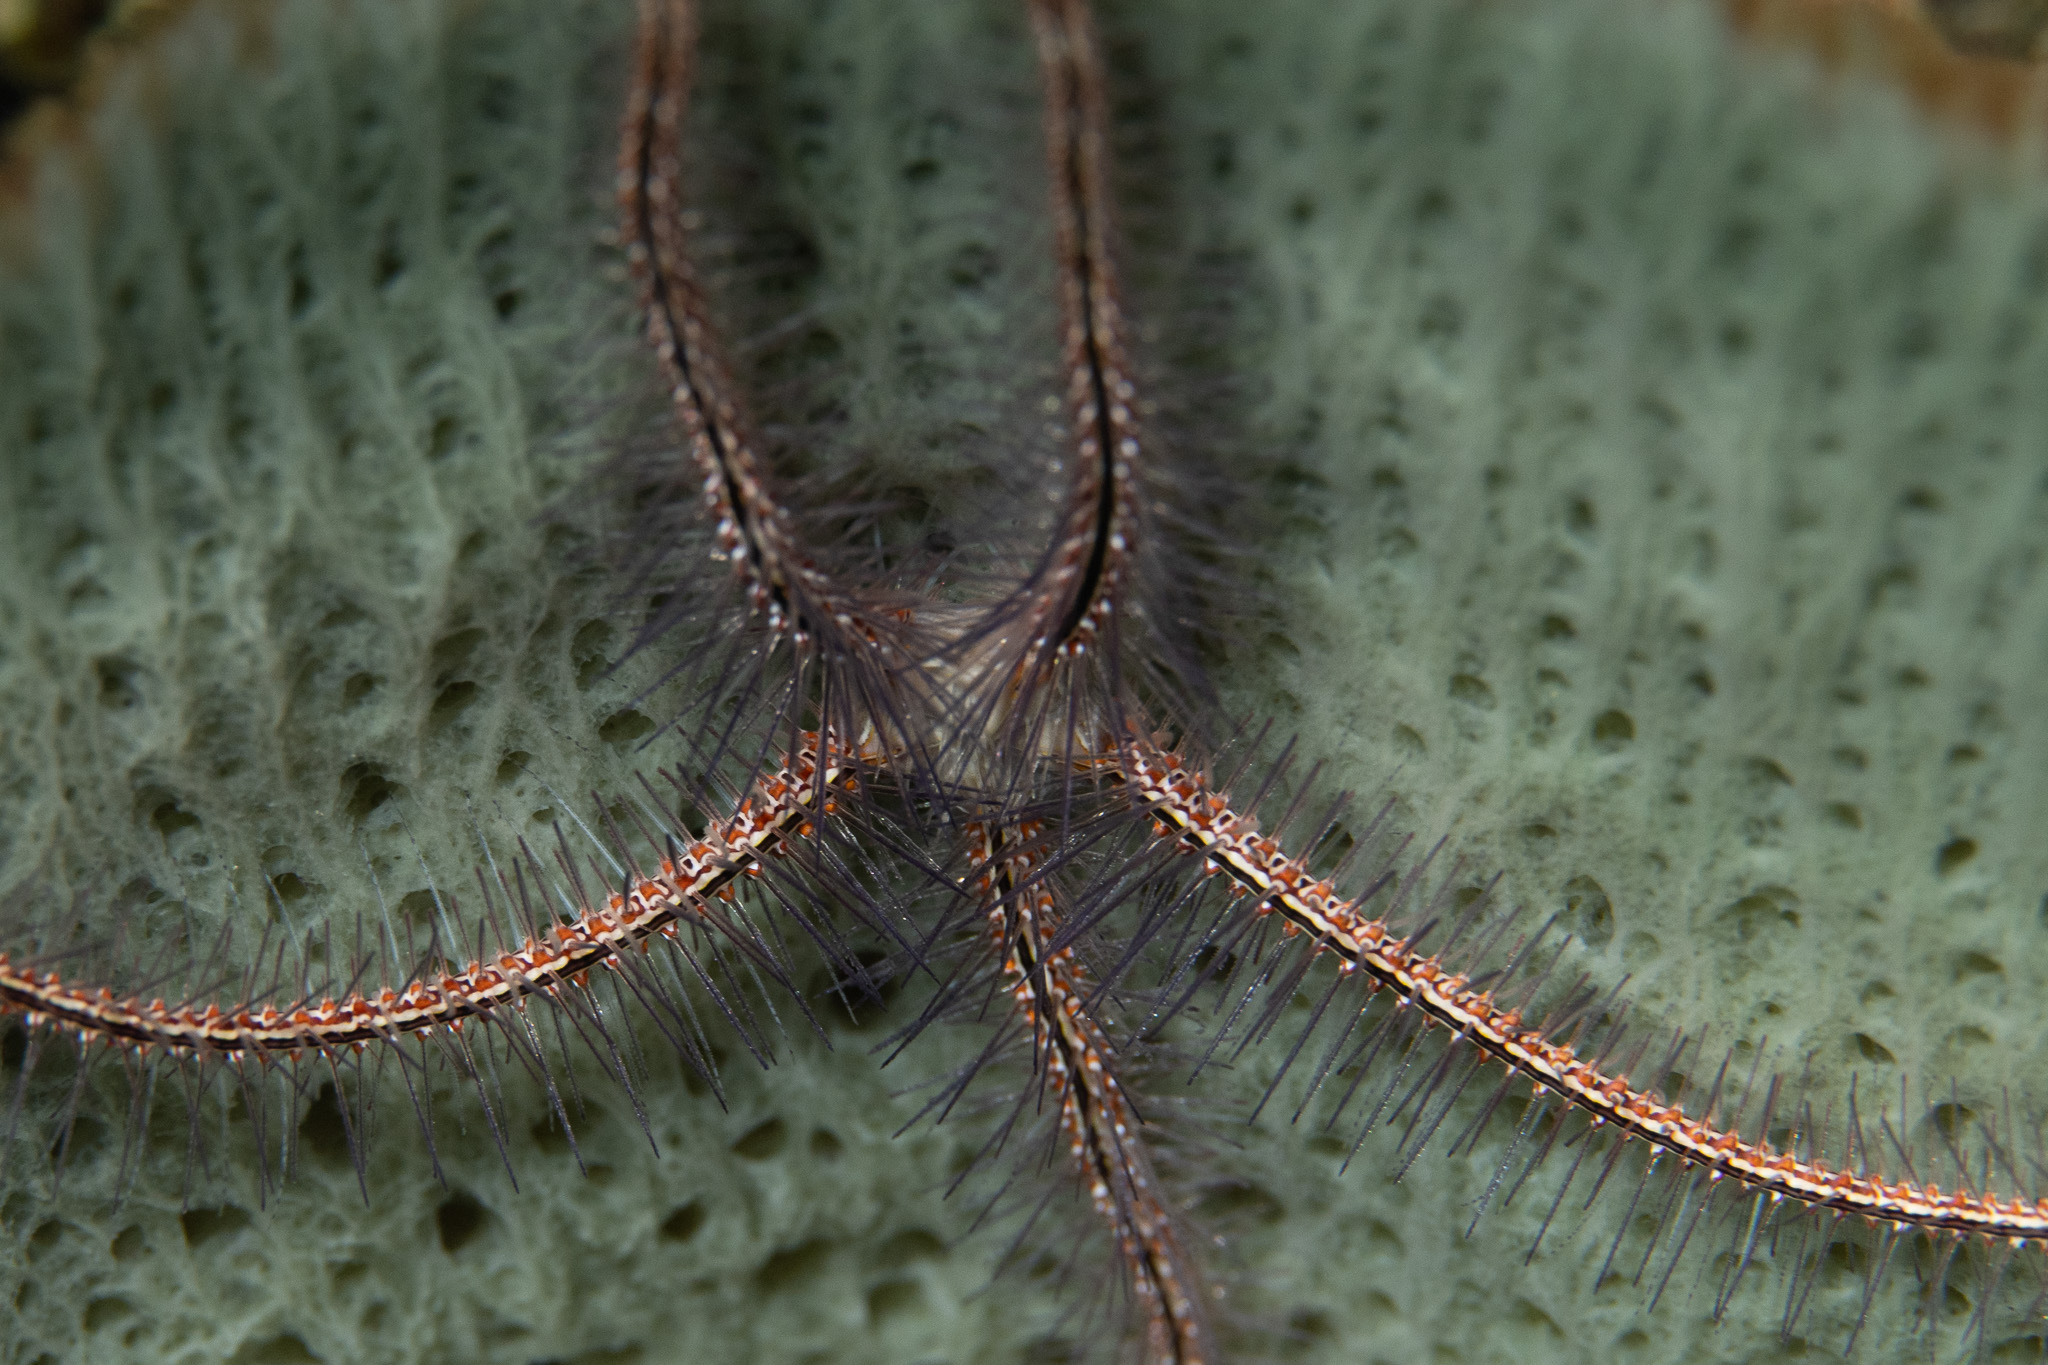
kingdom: Animalia
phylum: Echinodermata
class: Ophiuroidea
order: Amphilepidida
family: Ophiotrichidae
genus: Ophiothrix
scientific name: Ophiothrix suensonii
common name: Sponge brittle star
